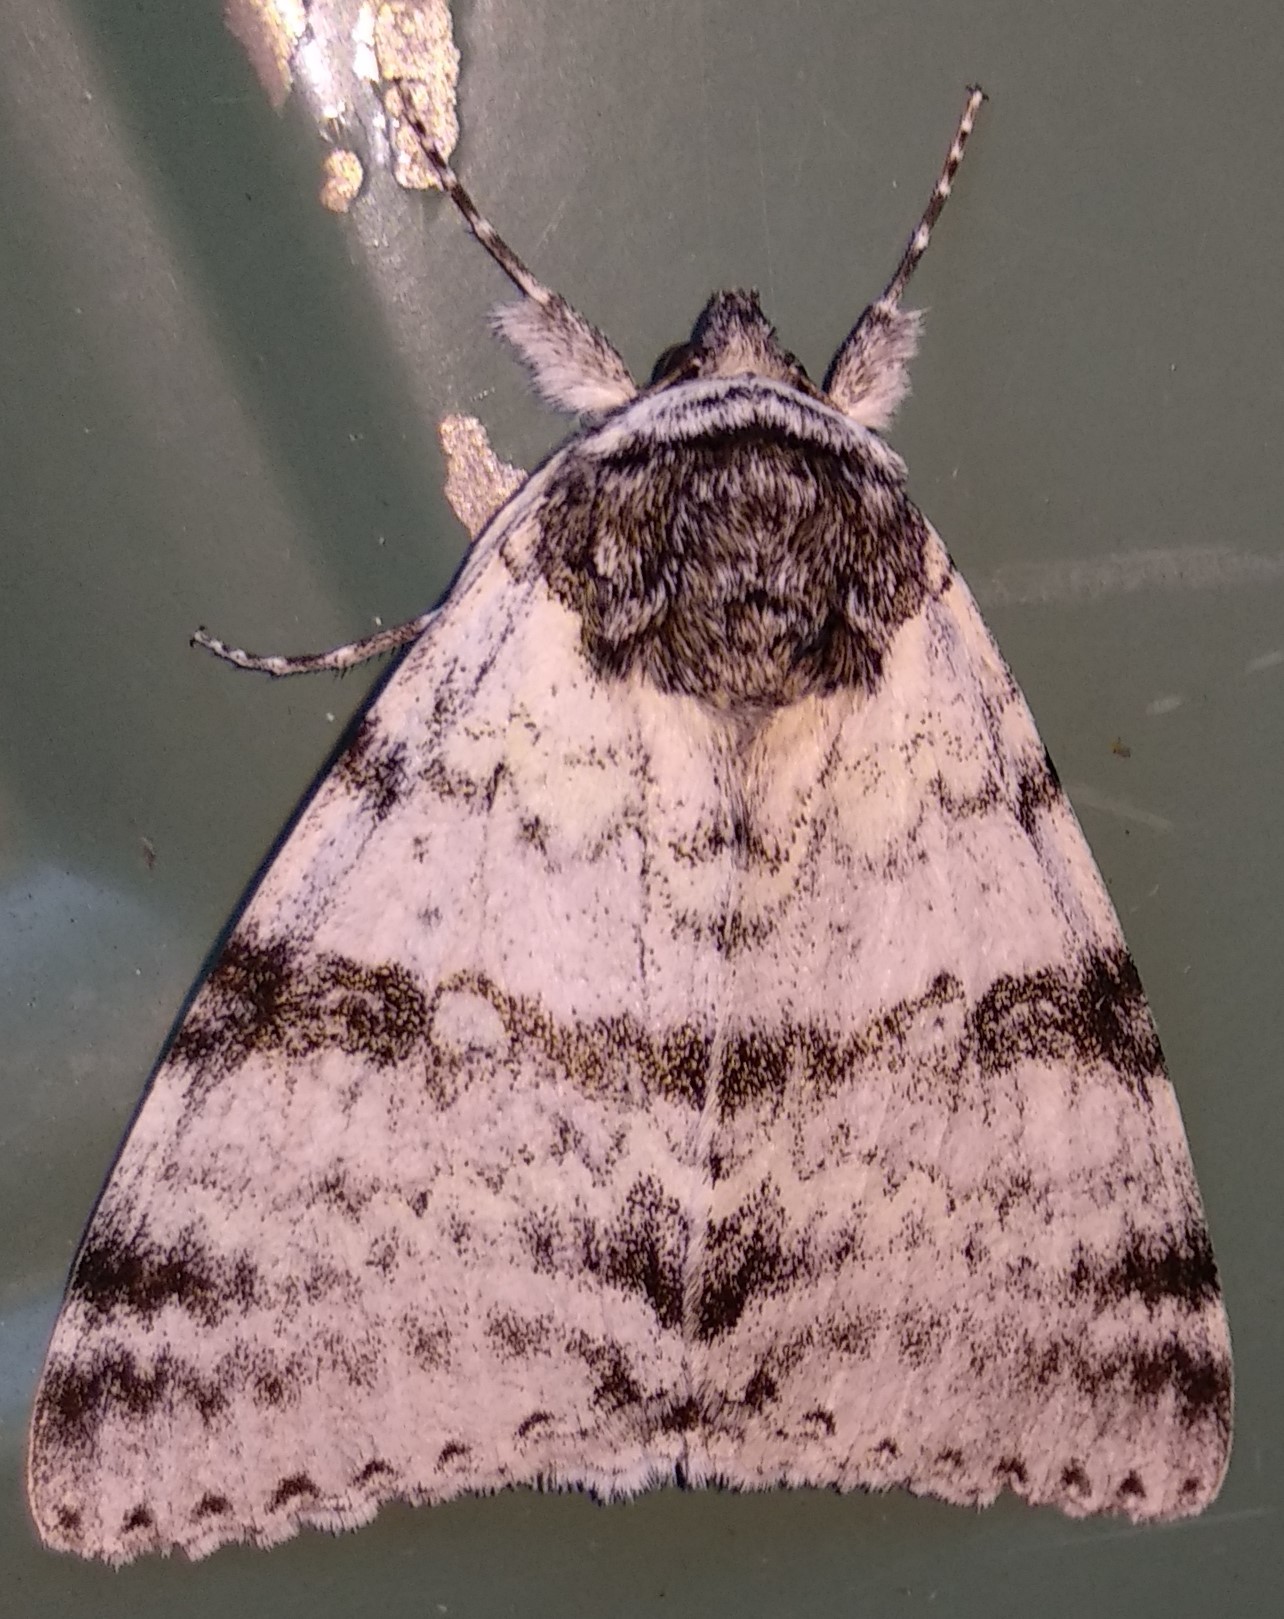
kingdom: Animalia
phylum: Arthropoda
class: Insecta
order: Lepidoptera
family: Erebidae
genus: Catocala
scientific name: Catocala relicta
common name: White underwing
